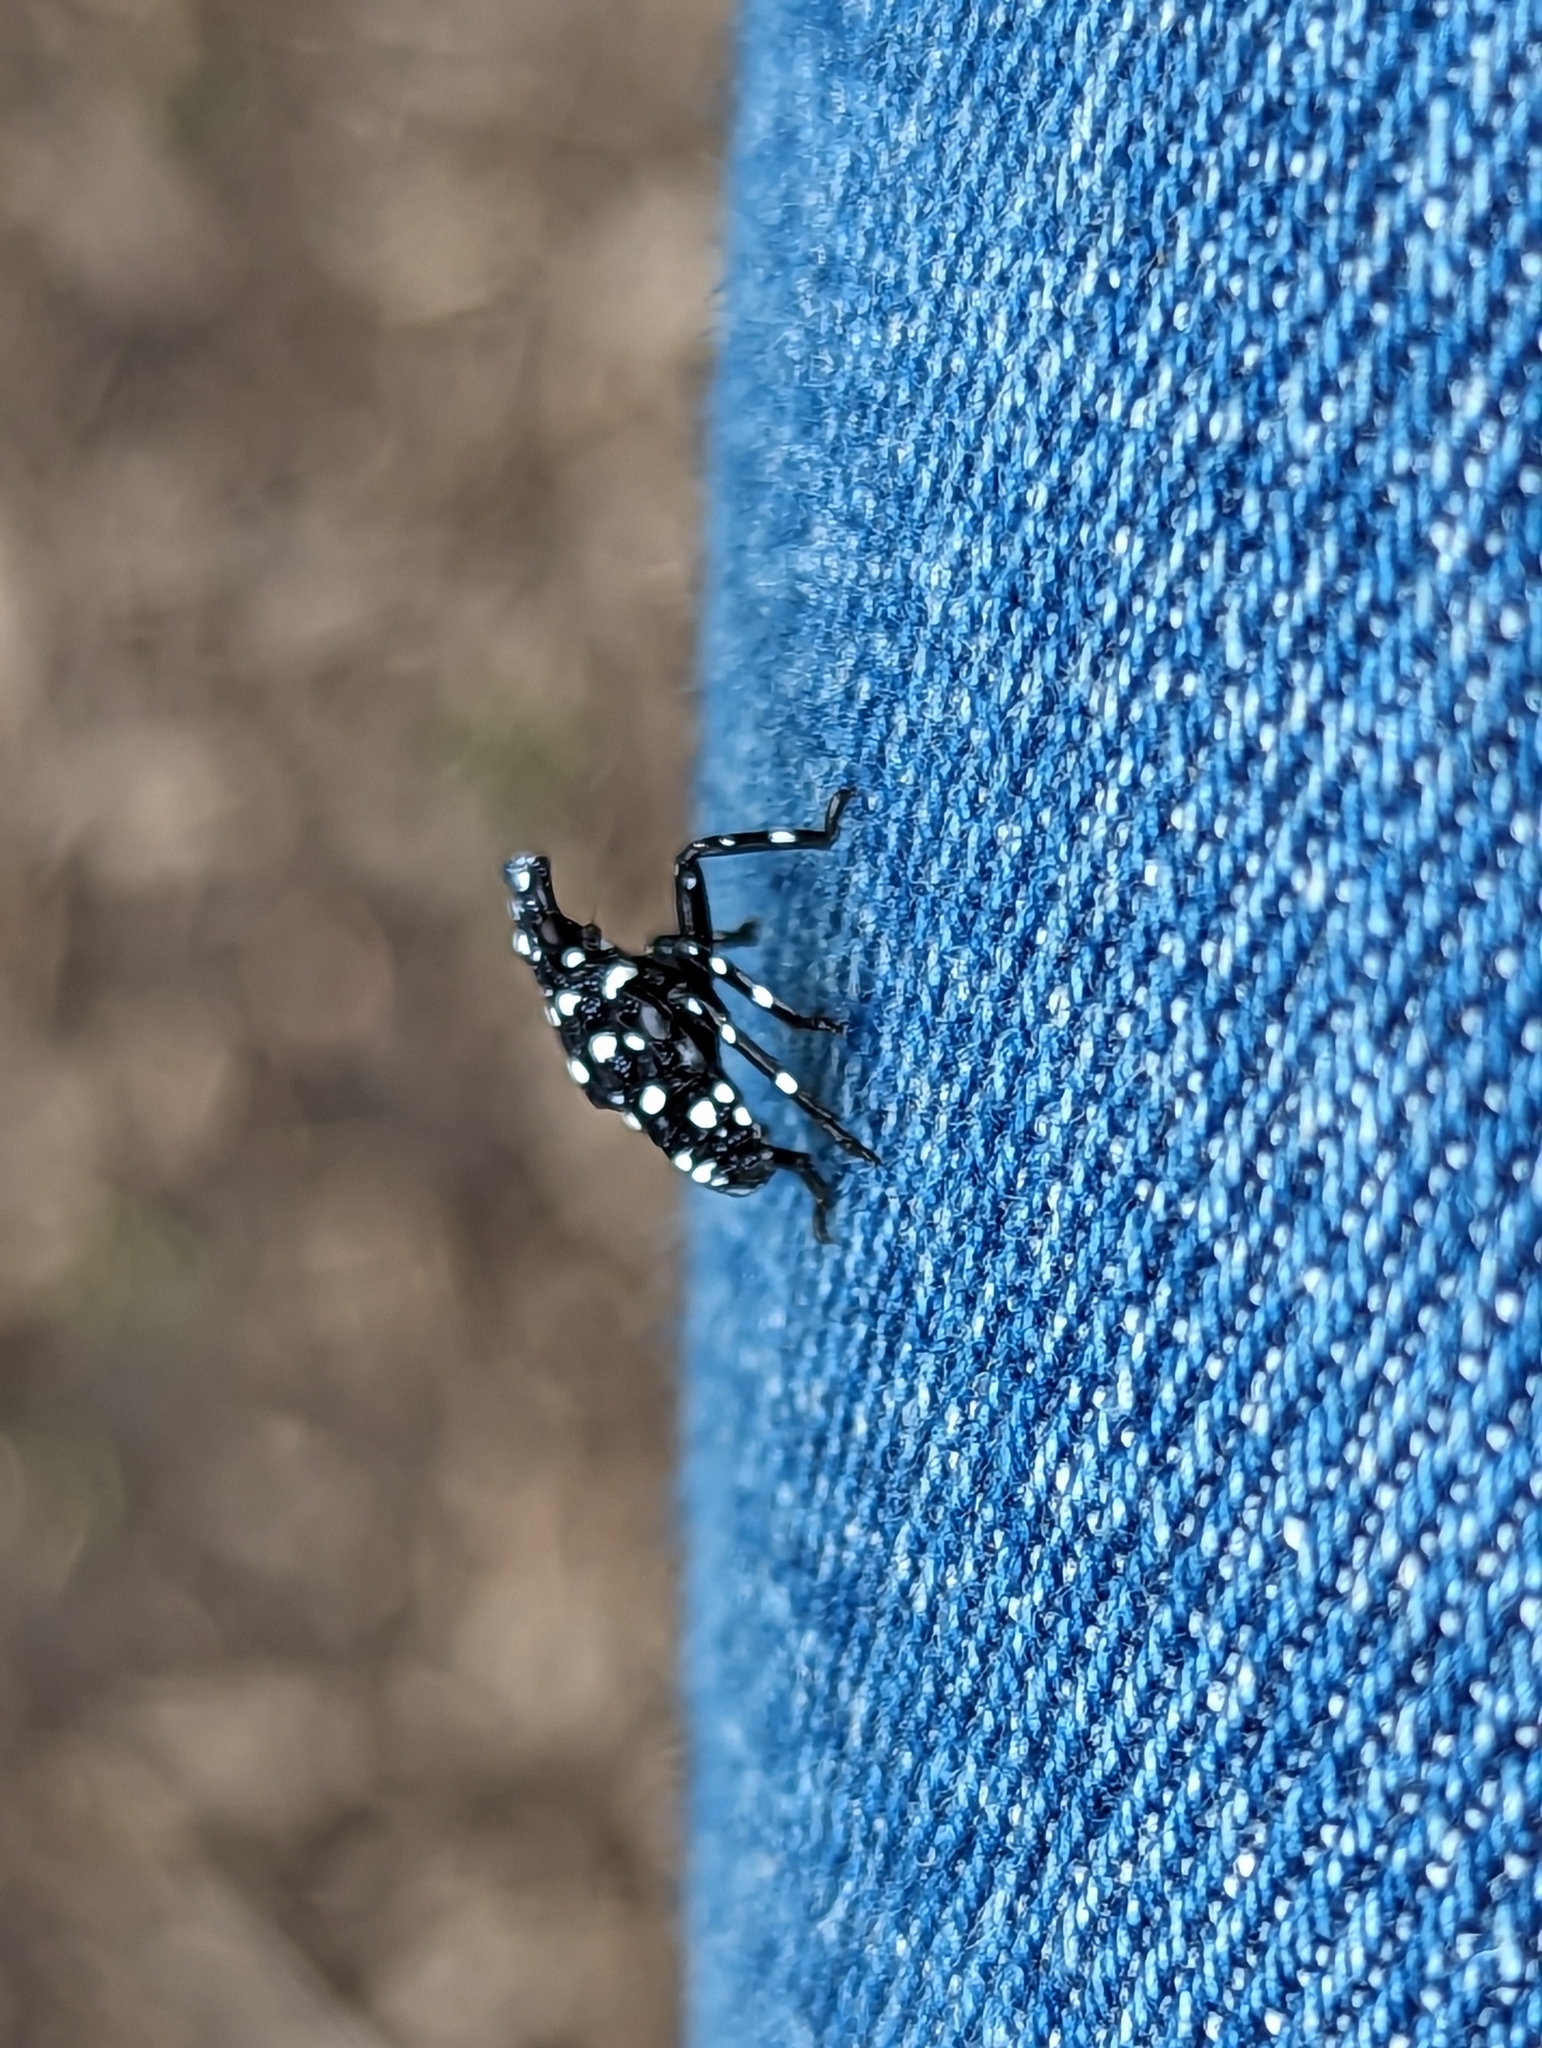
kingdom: Animalia
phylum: Arthropoda
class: Insecta
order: Hemiptera
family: Fulgoridae
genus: Lycorma
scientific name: Lycorma delicatula
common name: Spotted lanternfly
